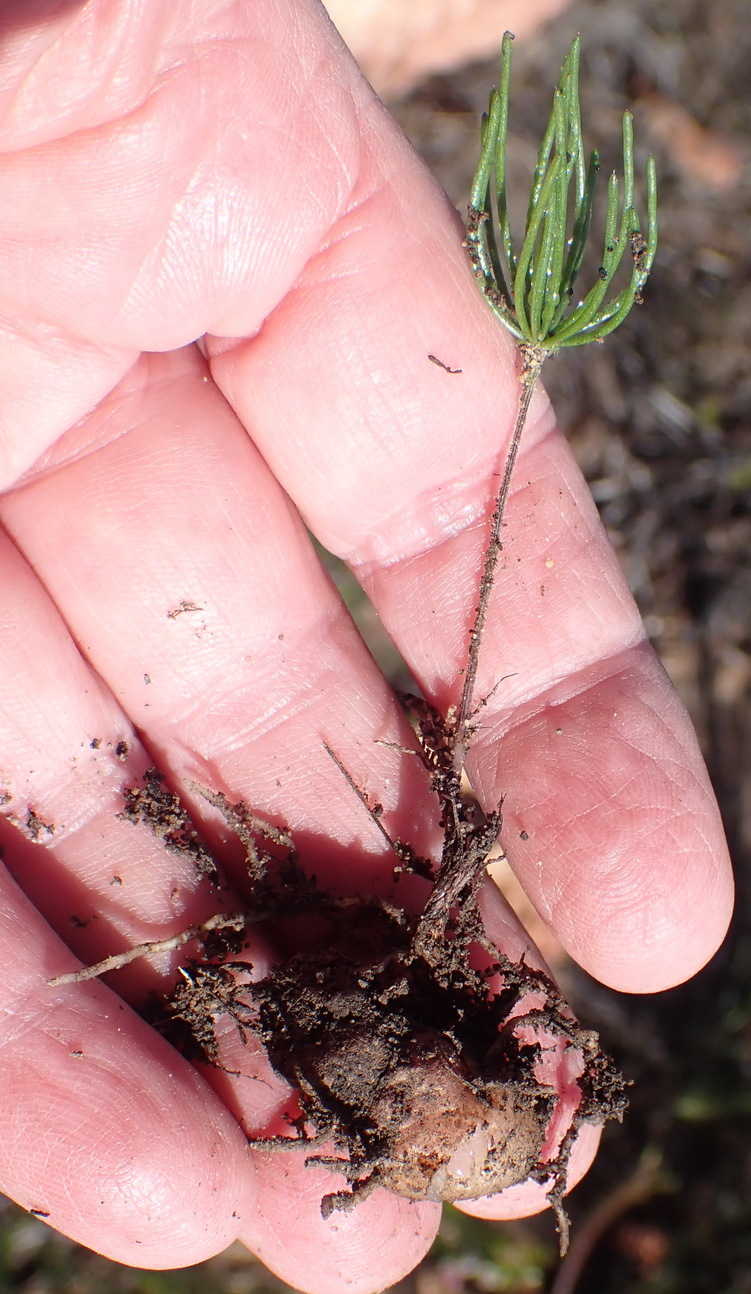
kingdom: Plantae
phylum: Tracheophyta
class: Liliopsida
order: Asparagales
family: Asparagaceae
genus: Eriospermum
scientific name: Eriospermum proliferum
